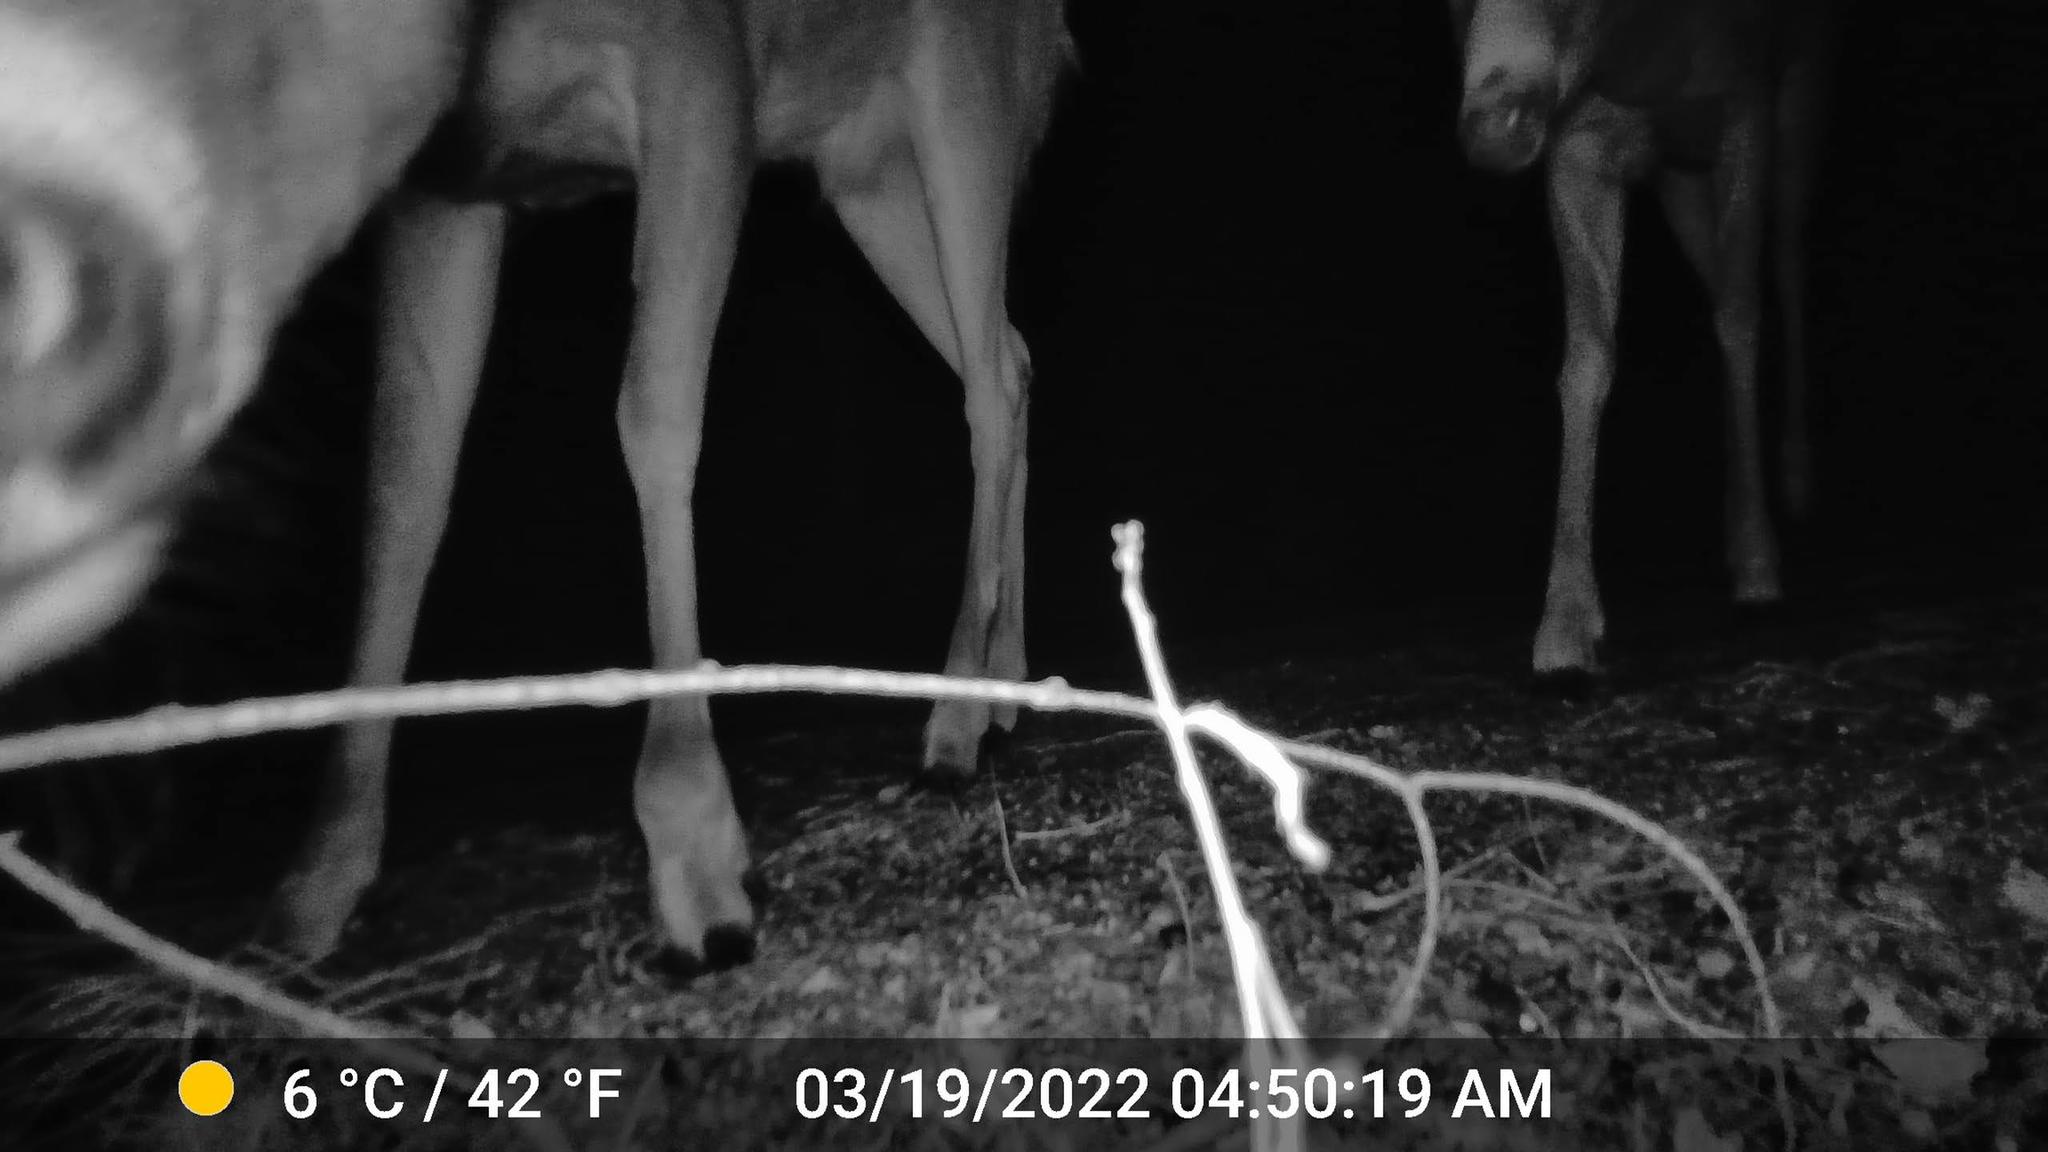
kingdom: Animalia
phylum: Chordata
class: Mammalia
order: Artiodactyla
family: Cervidae
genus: Odocoileus
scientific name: Odocoileus virginianus
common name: White-tailed deer
